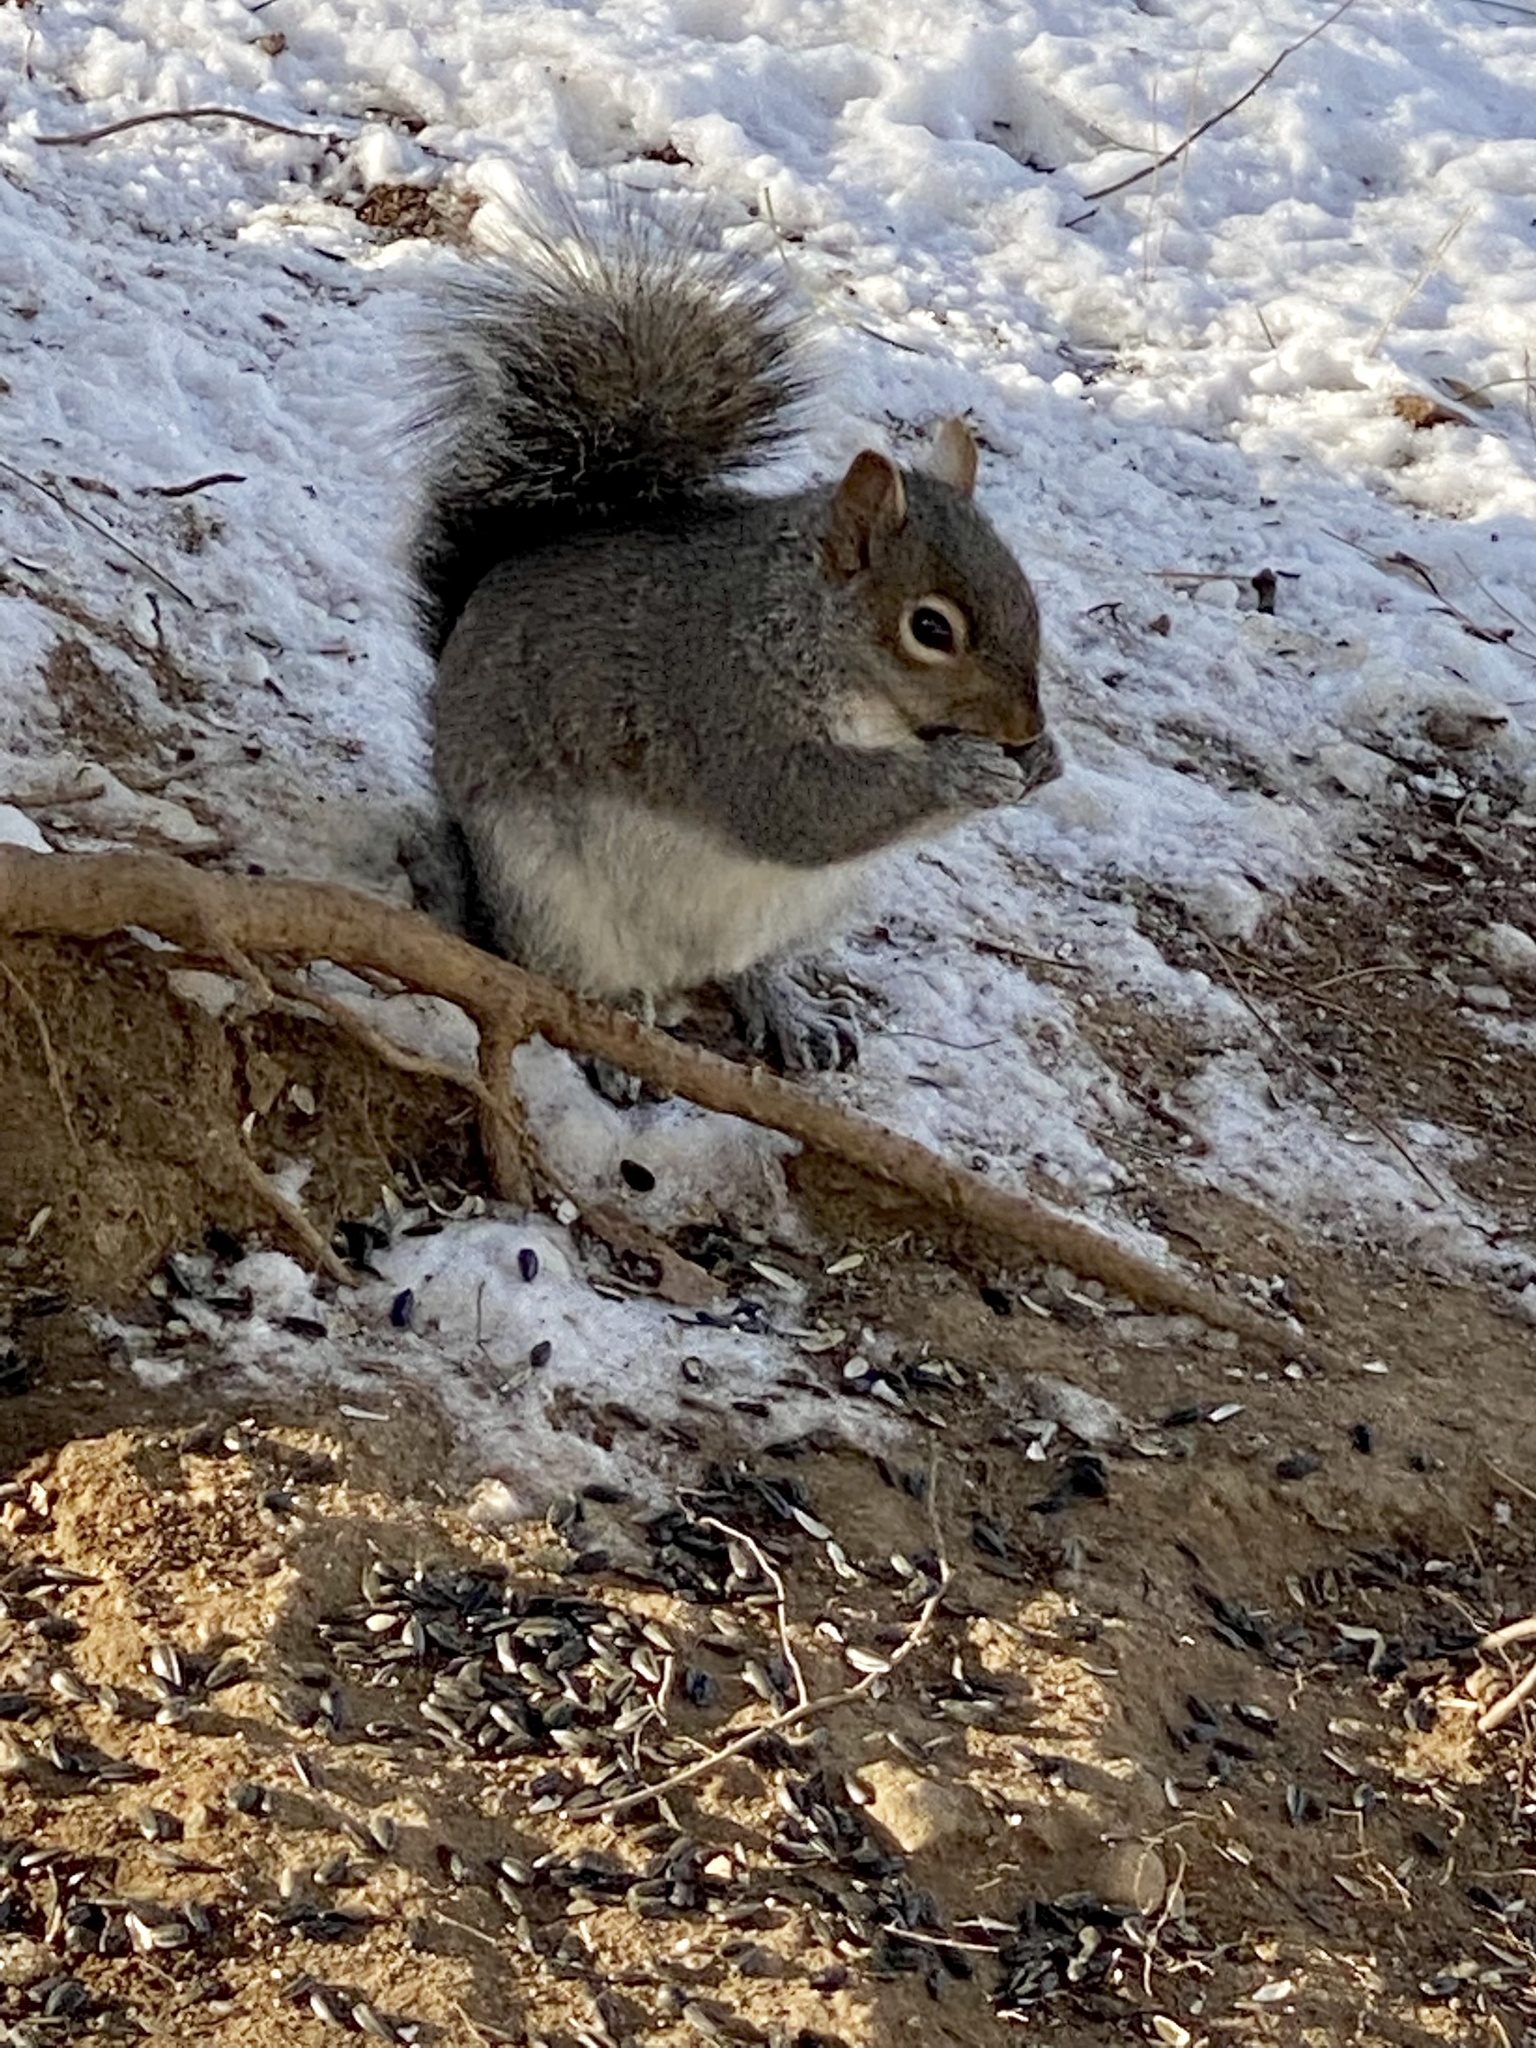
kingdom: Animalia
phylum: Chordata
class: Mammalia
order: Rodentia
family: Sciuridae
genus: Sciurus
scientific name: Sciurus carolinensis
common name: Eastern gray squirrel
